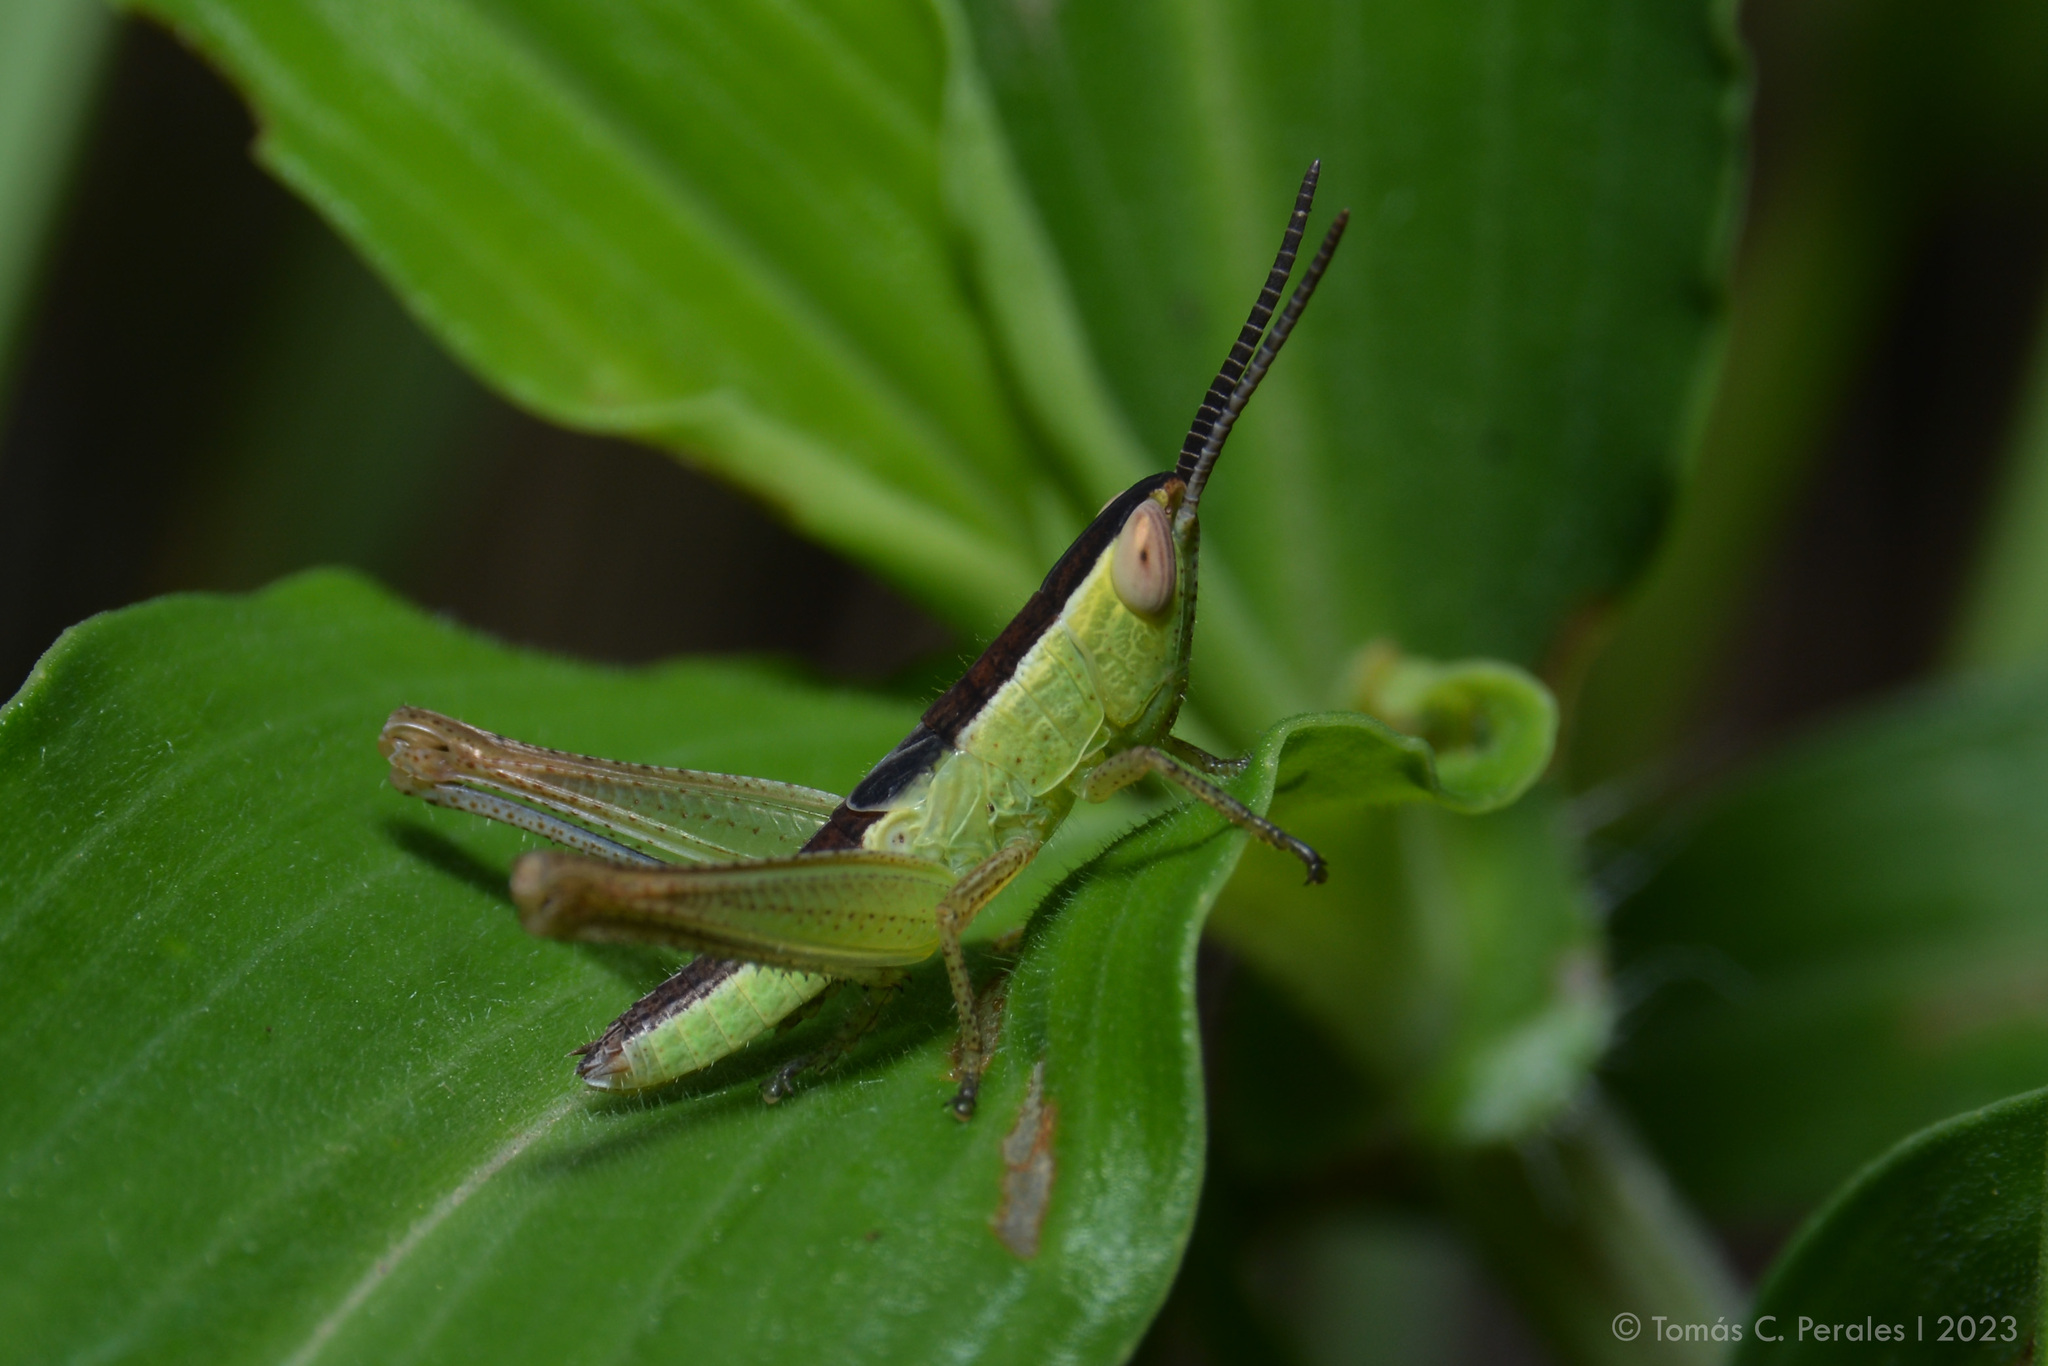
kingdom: Animalia
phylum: Arthropoda
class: Insecta
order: Orthoptera
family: Acrididae
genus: Staurorhectus
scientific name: Staurorhectus longicornis
